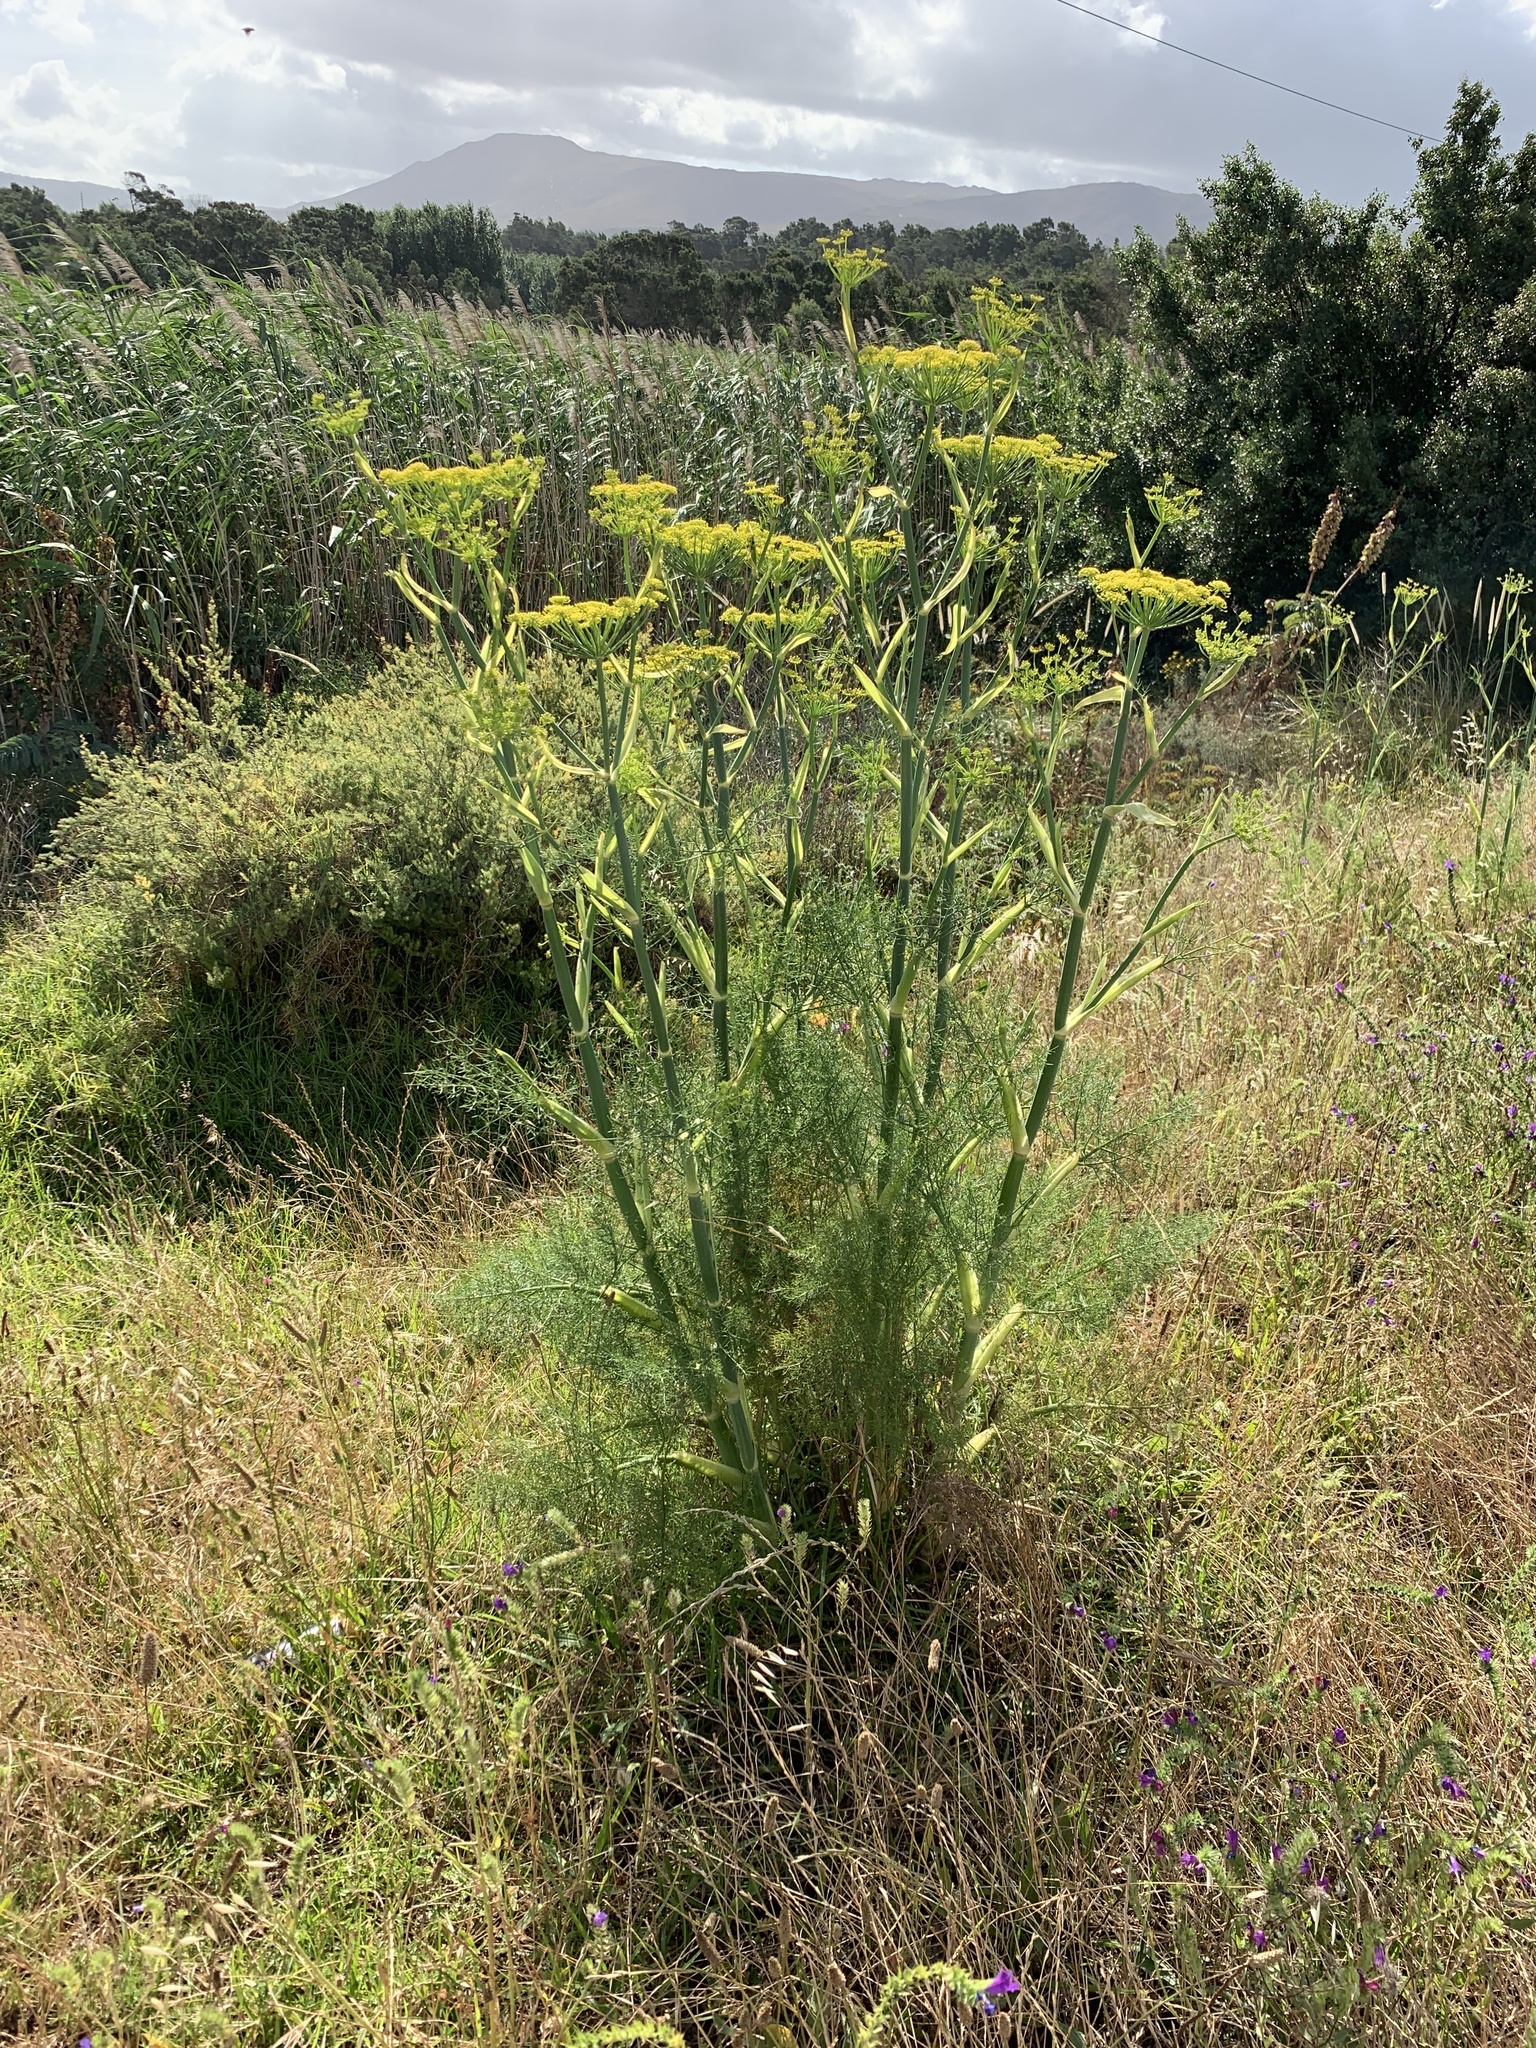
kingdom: Plantae
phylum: Tracheophyta
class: Magnoliopsida
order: Apiales
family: Apiaceae
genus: Foeniculum
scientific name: Foeniculum vulgare
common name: Fennel
